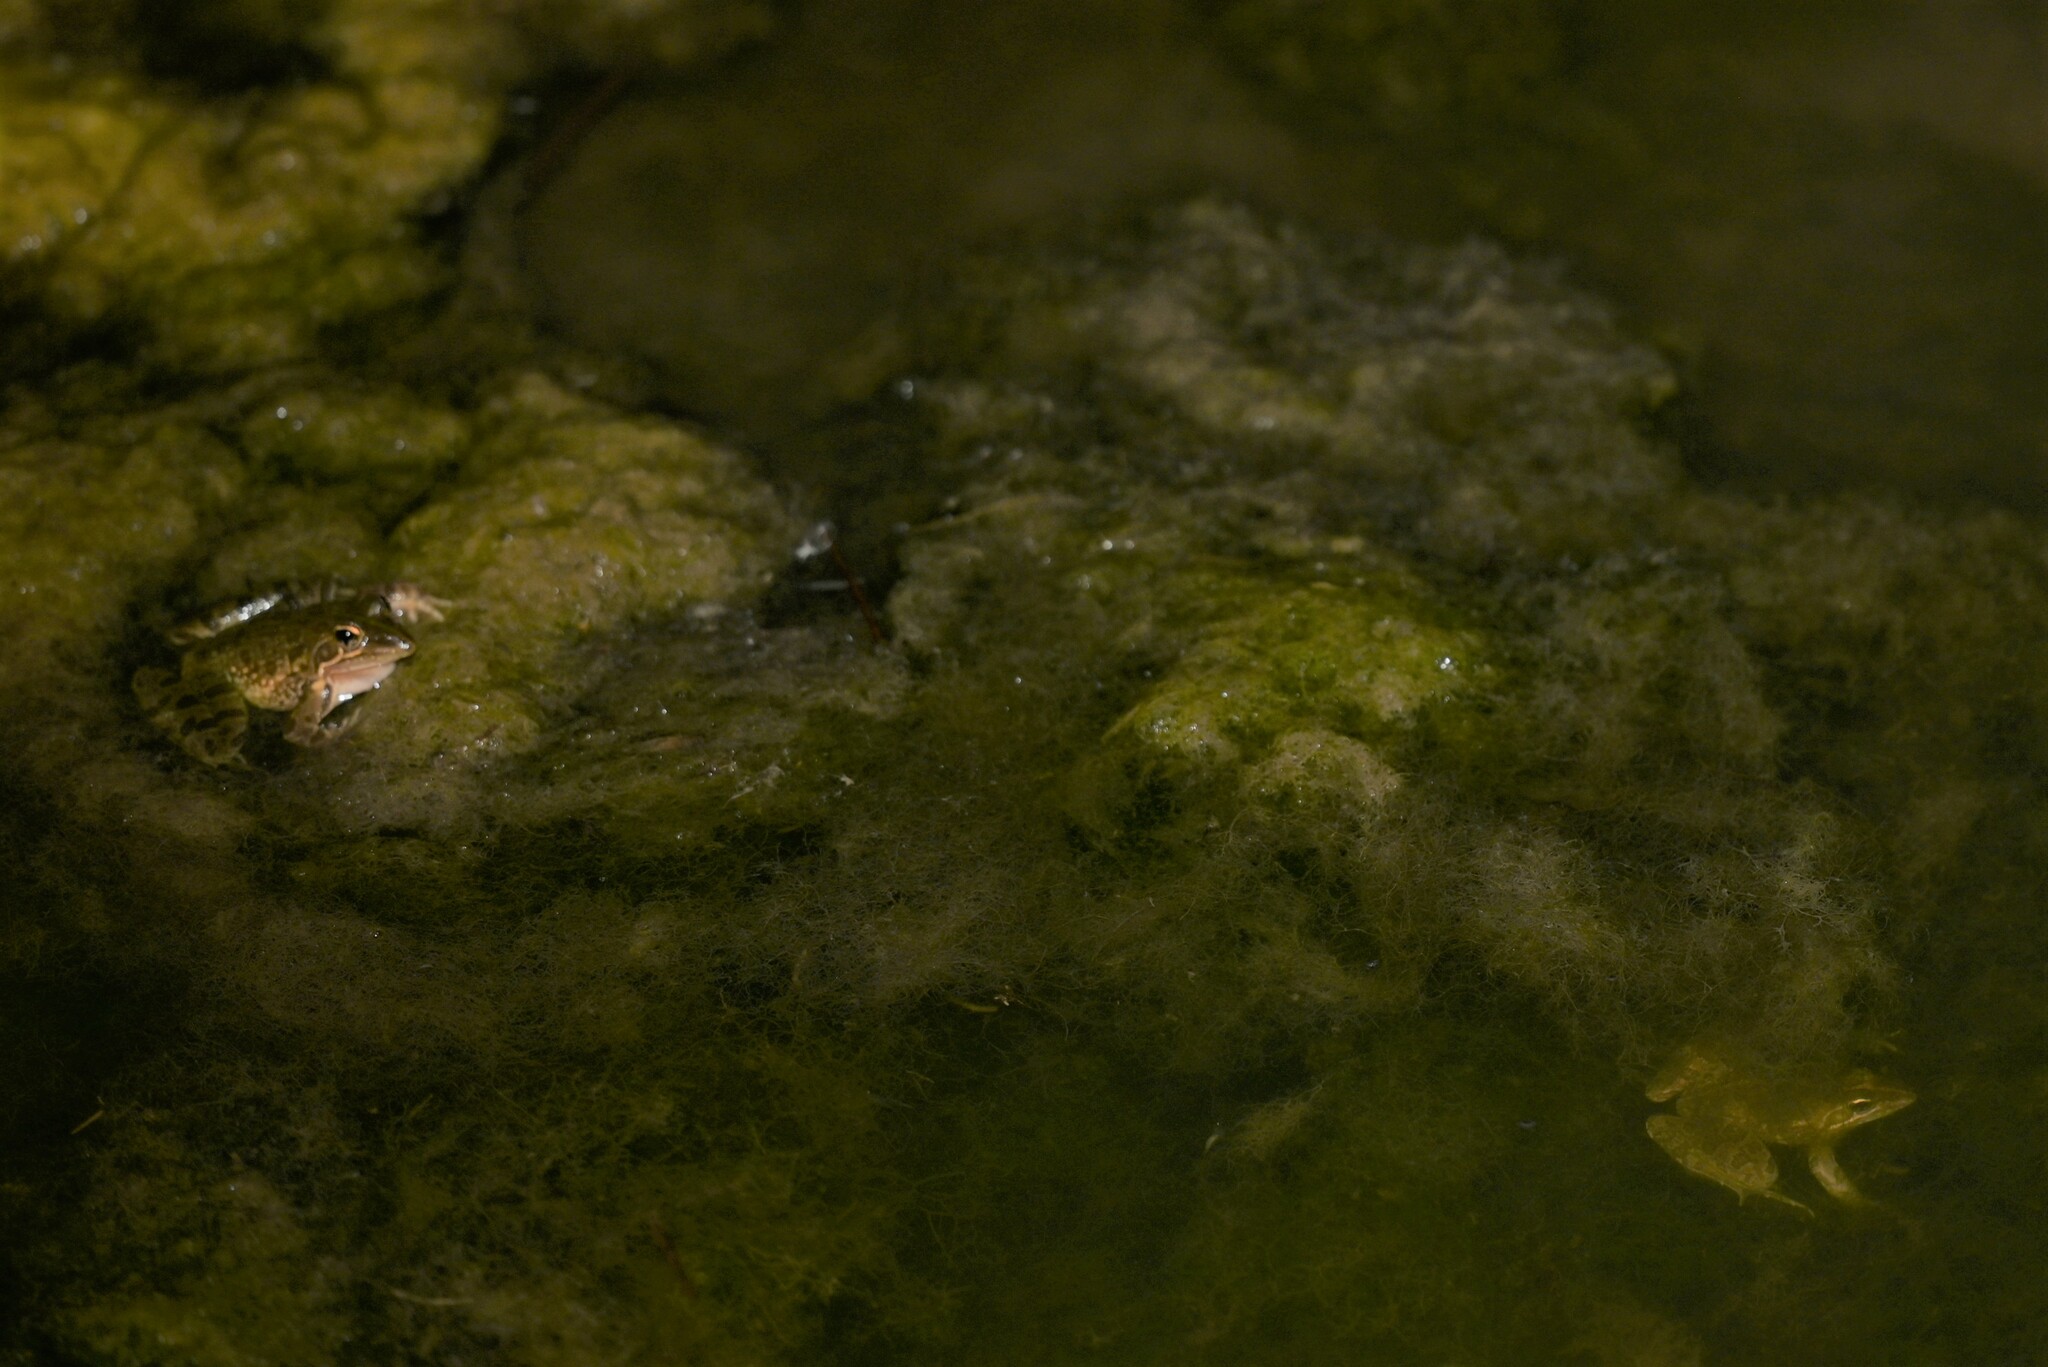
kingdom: Animalia
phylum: Chordata
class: Amphibia
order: Anura
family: Pyxicephalidae
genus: Amietia
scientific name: Amietia delalandii
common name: Delalande's river frog
